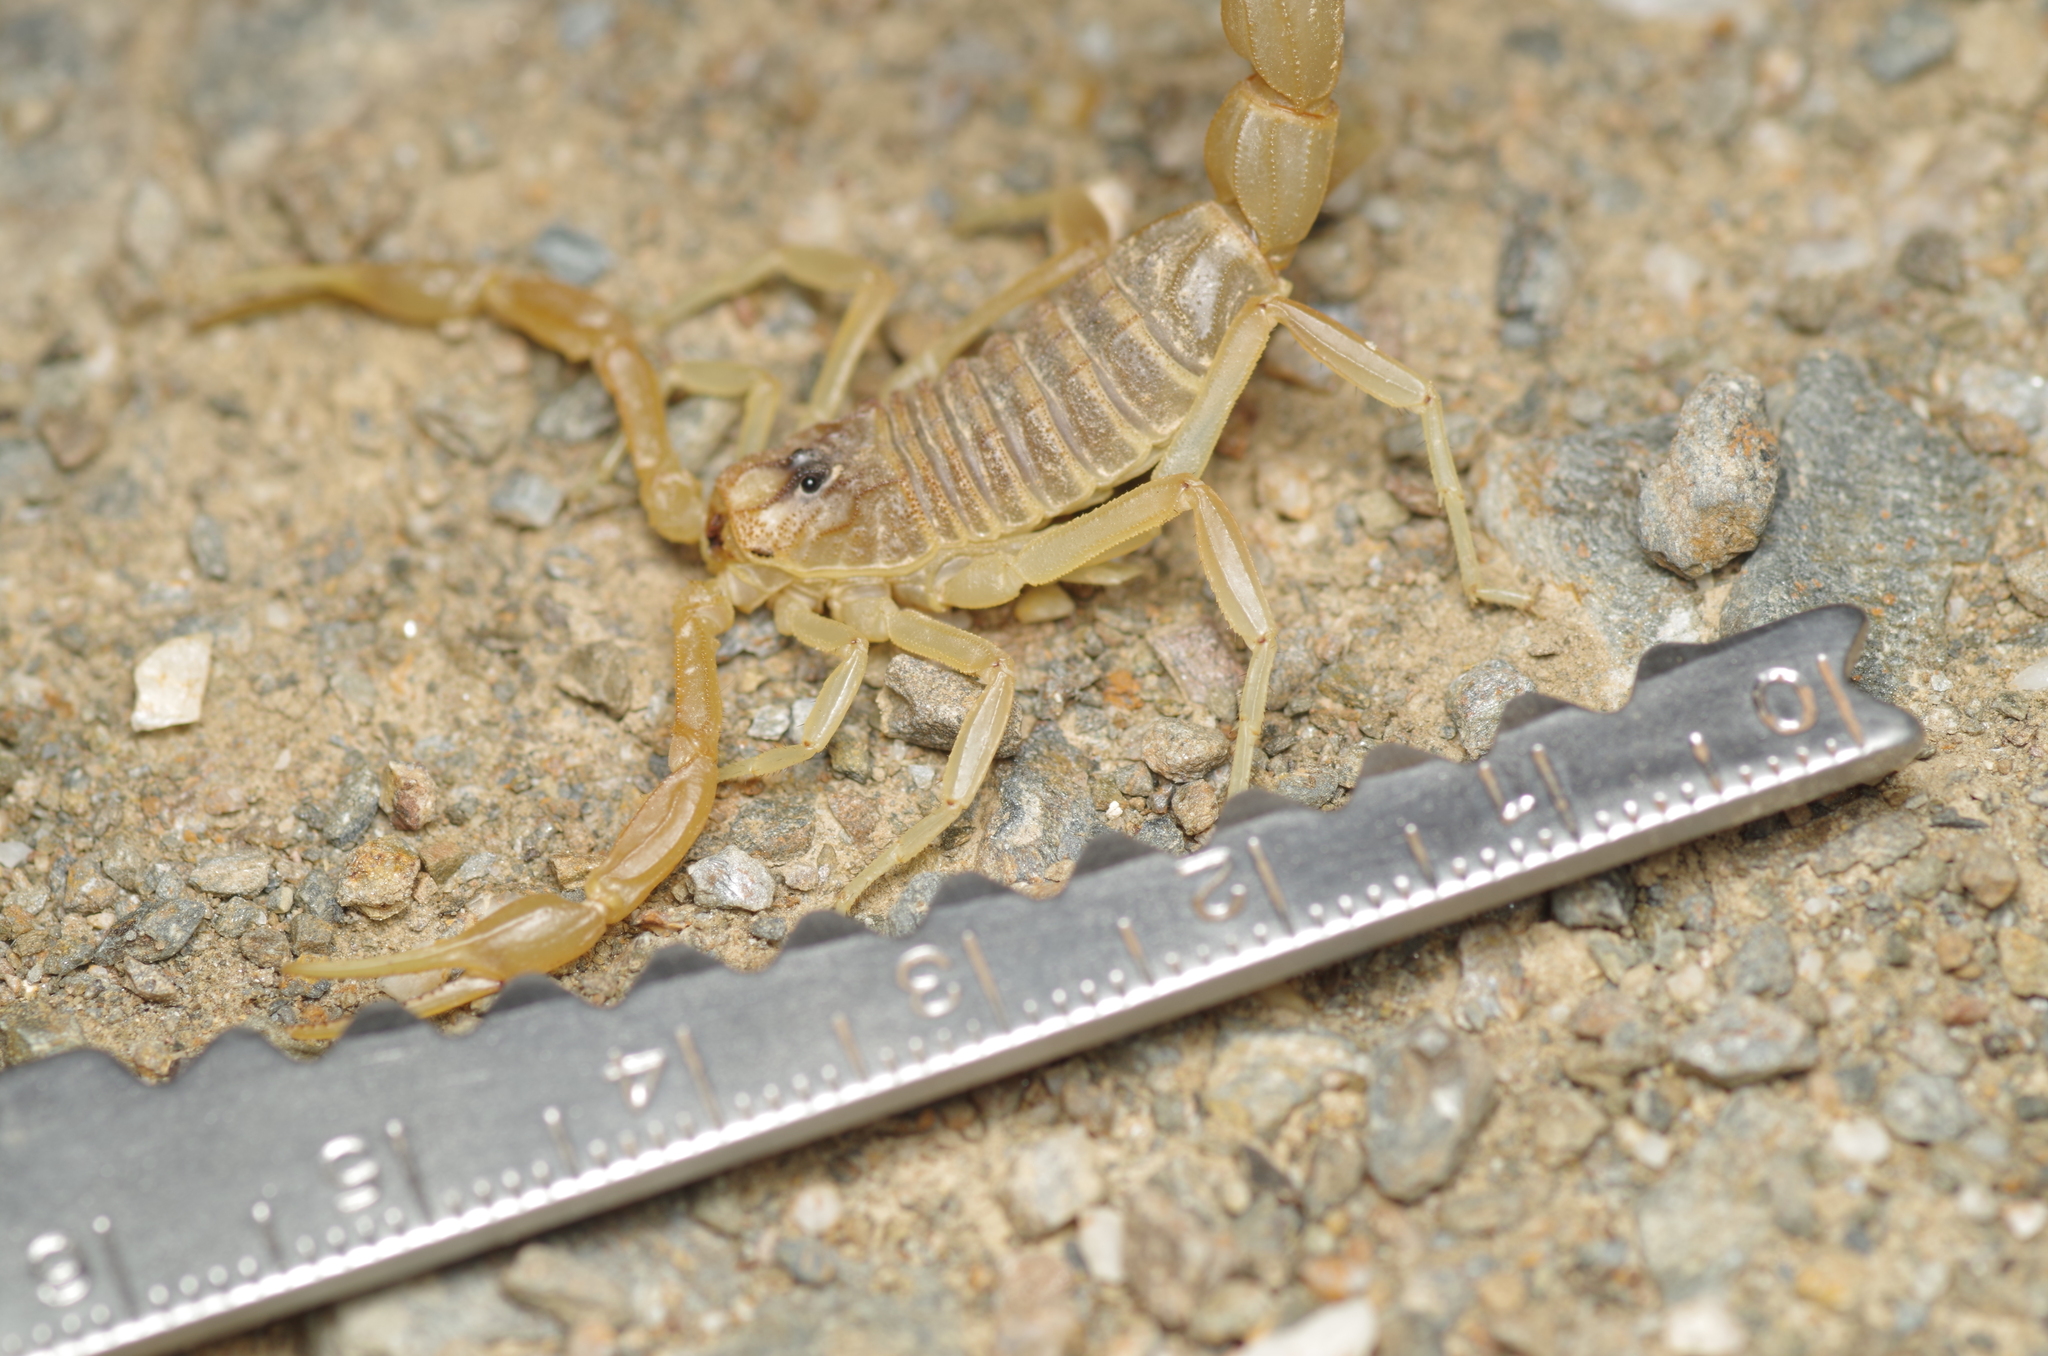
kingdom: Animalia
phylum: Arthropoda
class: Arachnida
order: Scorpiones
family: Buthidae
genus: Buthus
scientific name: Buthus pyrenaeus
